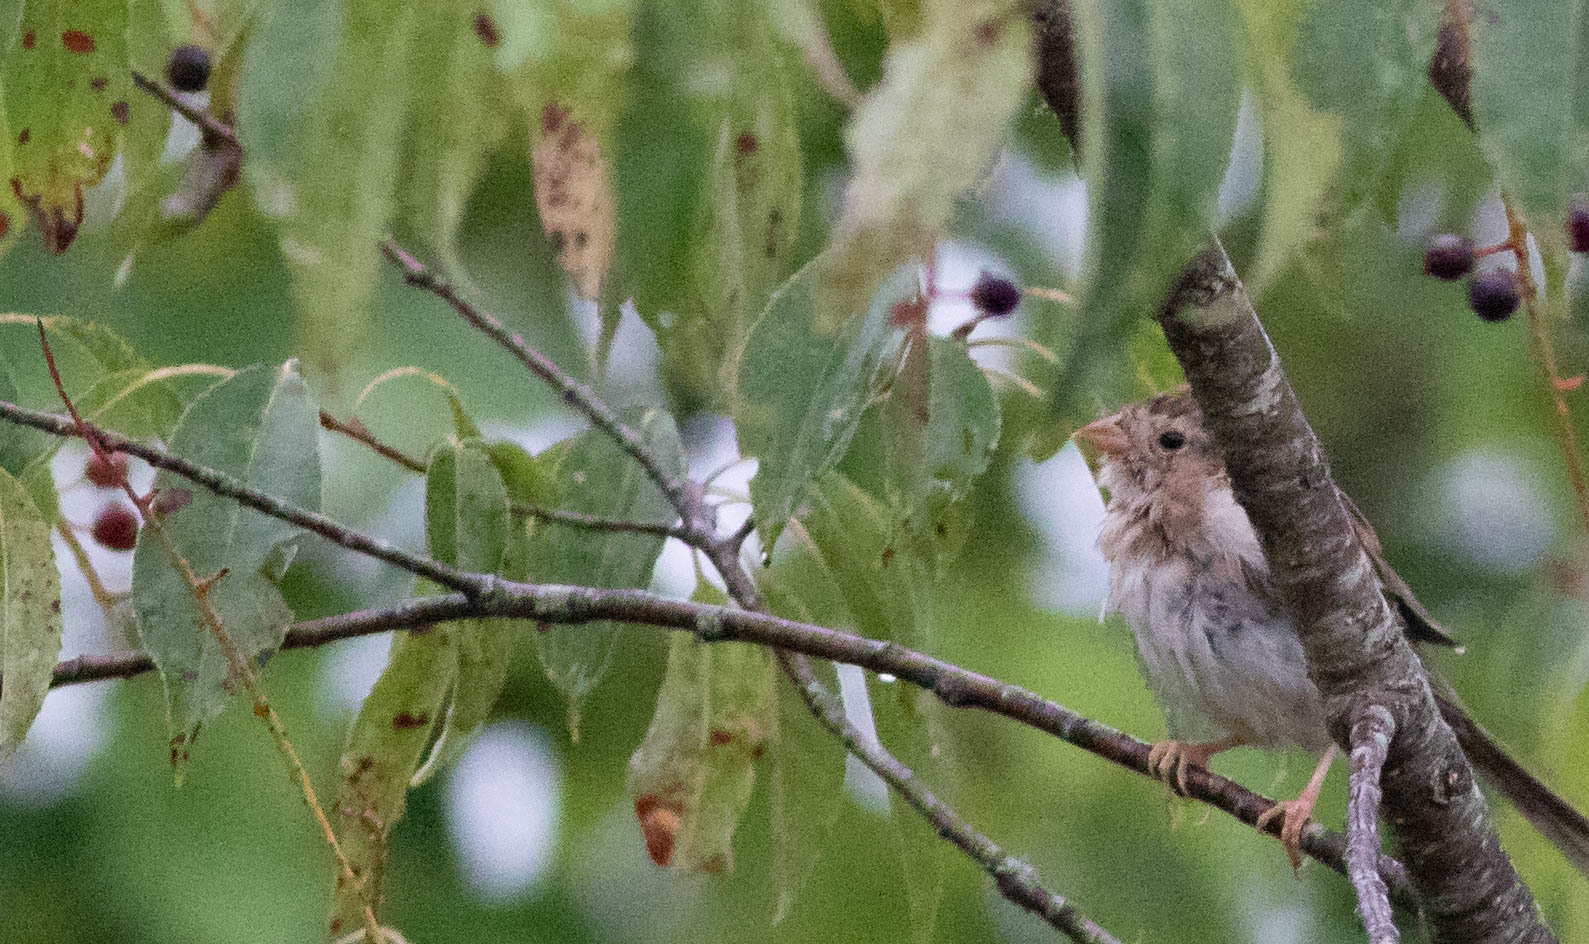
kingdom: Animalia
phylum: Chordata
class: Aves
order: Passeriformes
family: Passerellidae
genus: Spizella
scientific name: Spizella pusilla
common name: Field sparrow
